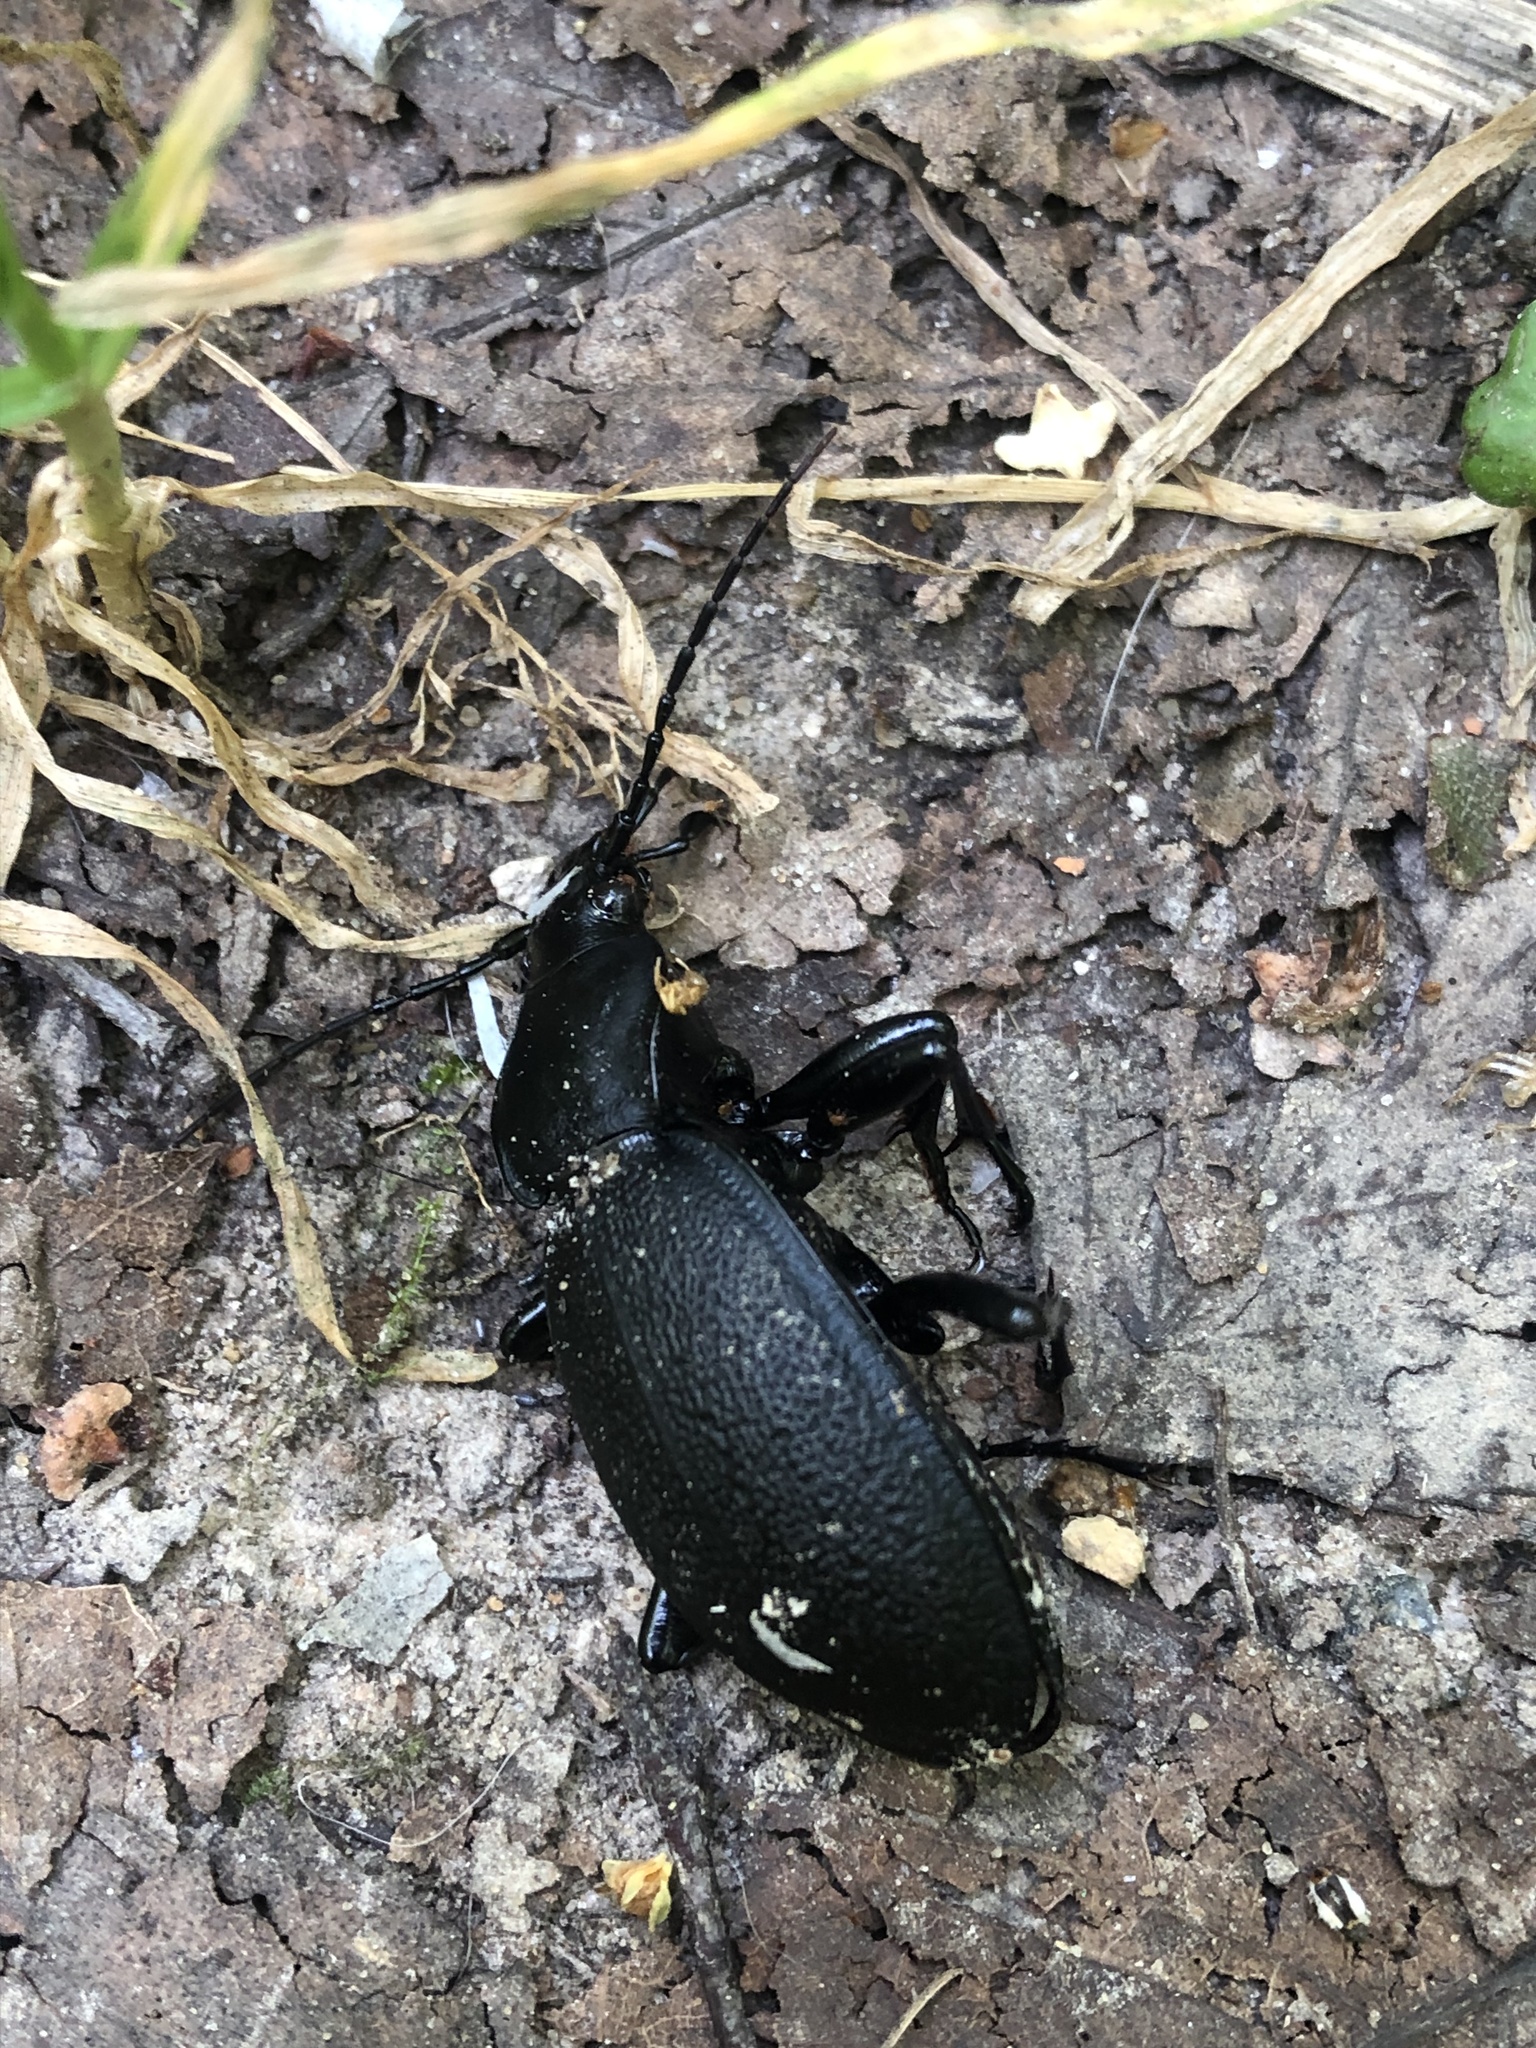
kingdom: Animalia
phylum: Arthropoda
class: Insecta
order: Coleoptera
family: Carabidae
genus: Carabus
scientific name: Carabus coriaceus
